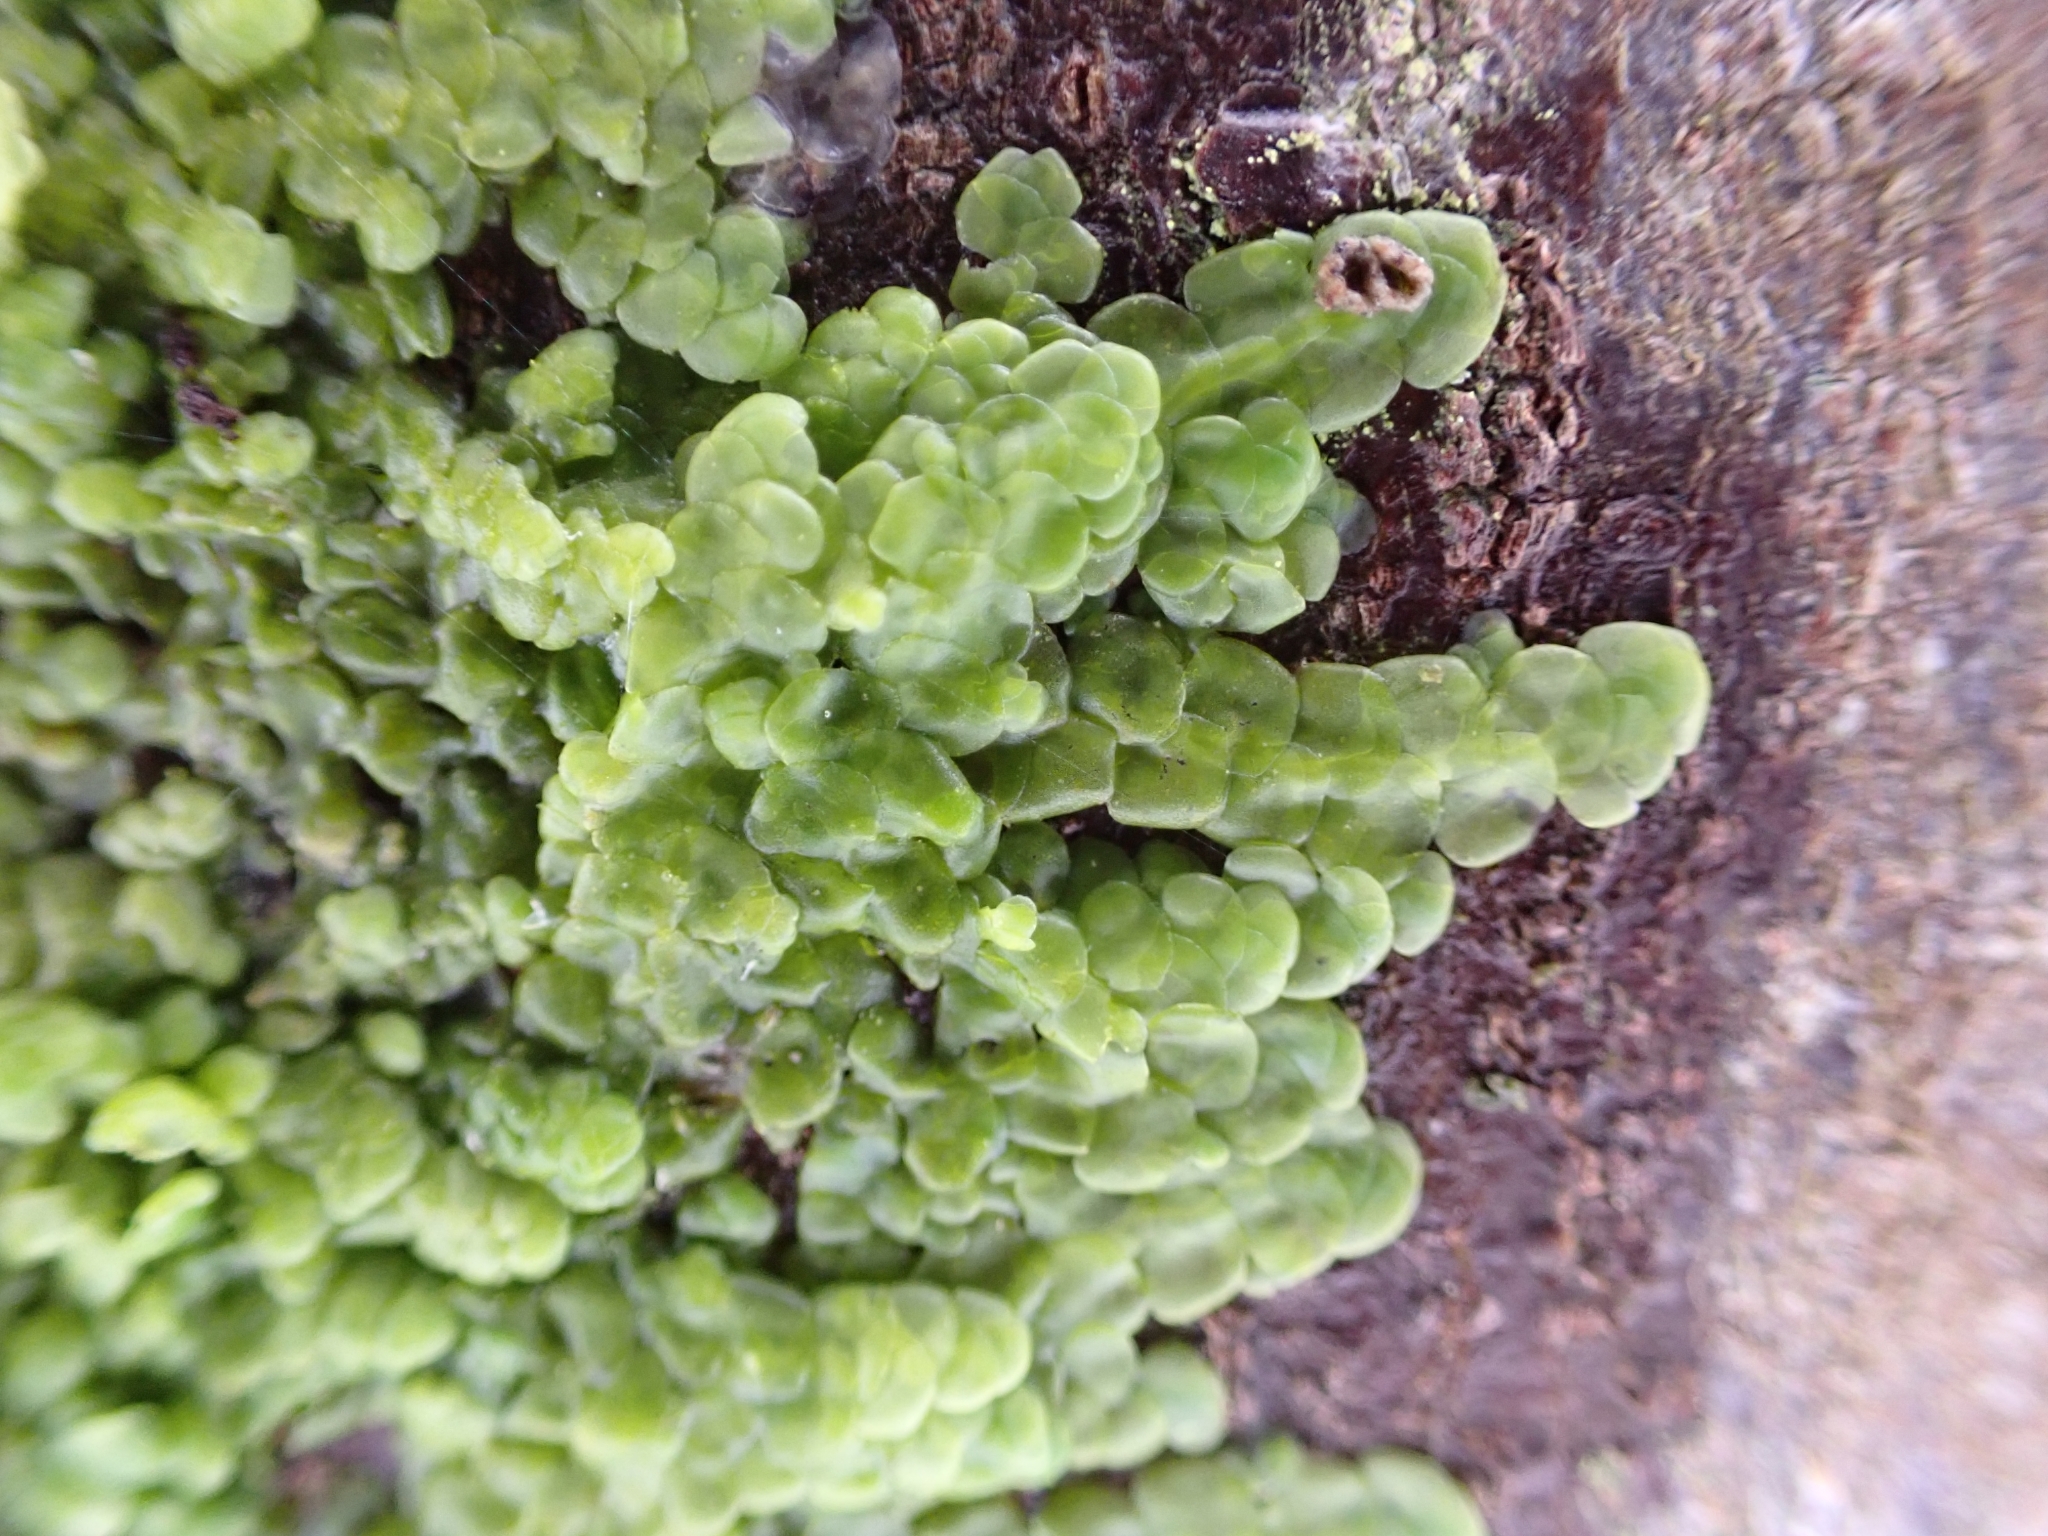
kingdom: Plantae
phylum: Marchantiophyta
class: Jungermanniopsida
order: Porellales
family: Radulaceae
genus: Radula
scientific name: Radula complanata
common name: Flat-leaved scalewort
